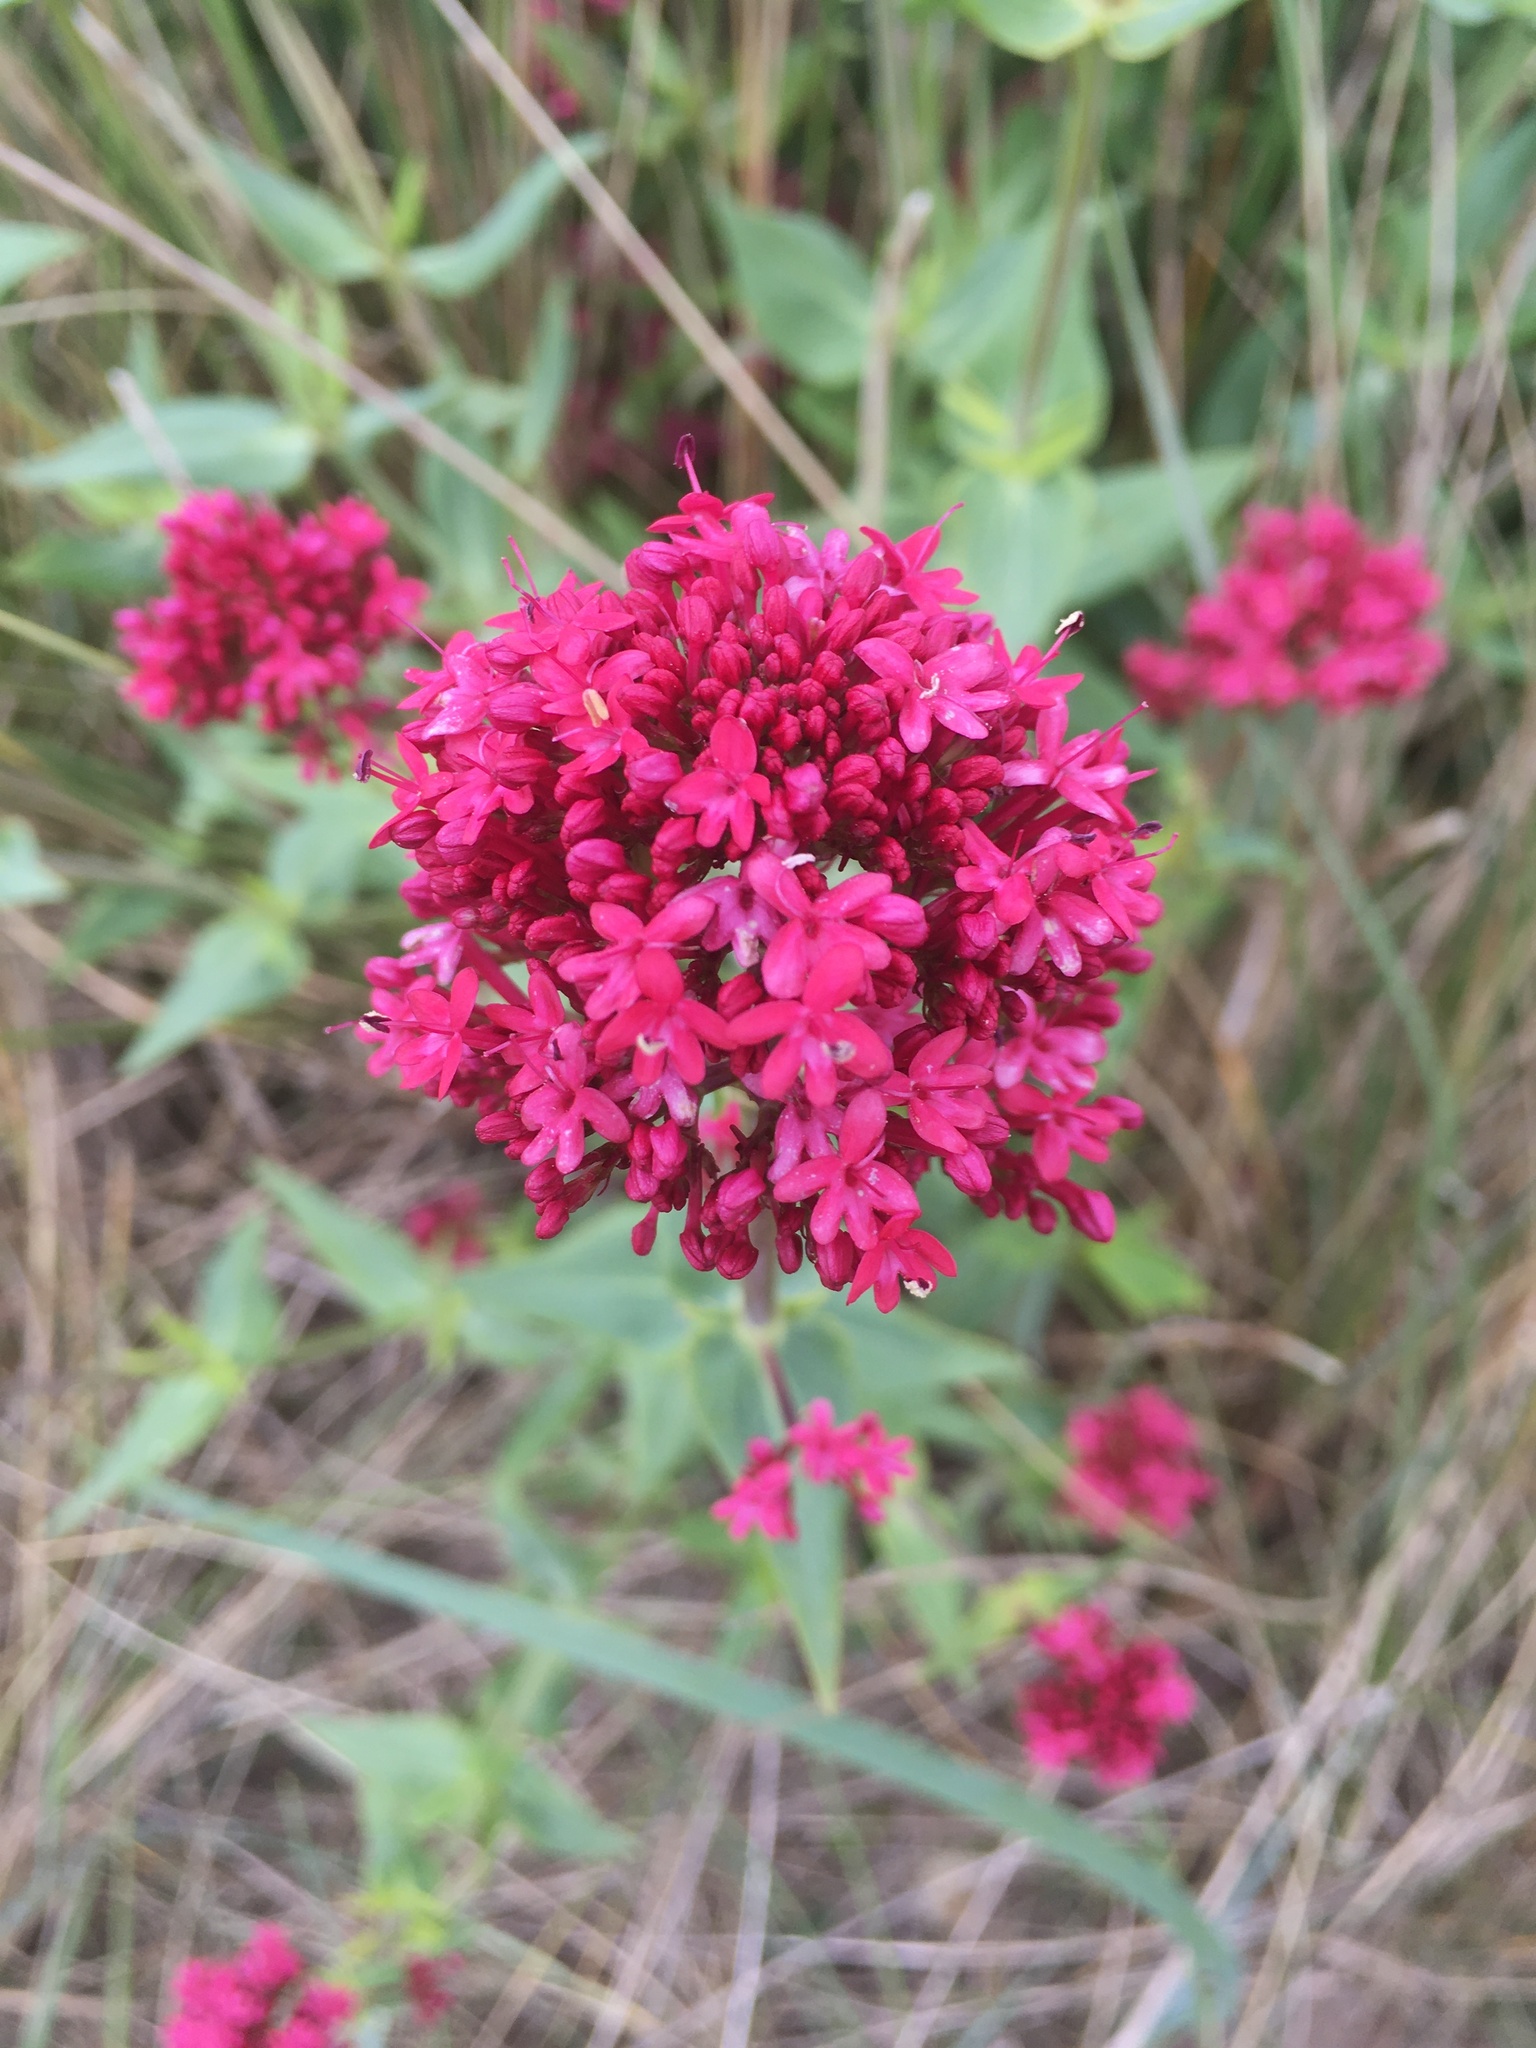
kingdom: Plantae
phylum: Tracheophyta
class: Magnoliopsida
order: Dipsacales
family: Caprifoliaceae
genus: Centranthus
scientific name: Centranthus ruber
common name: Red valerian
